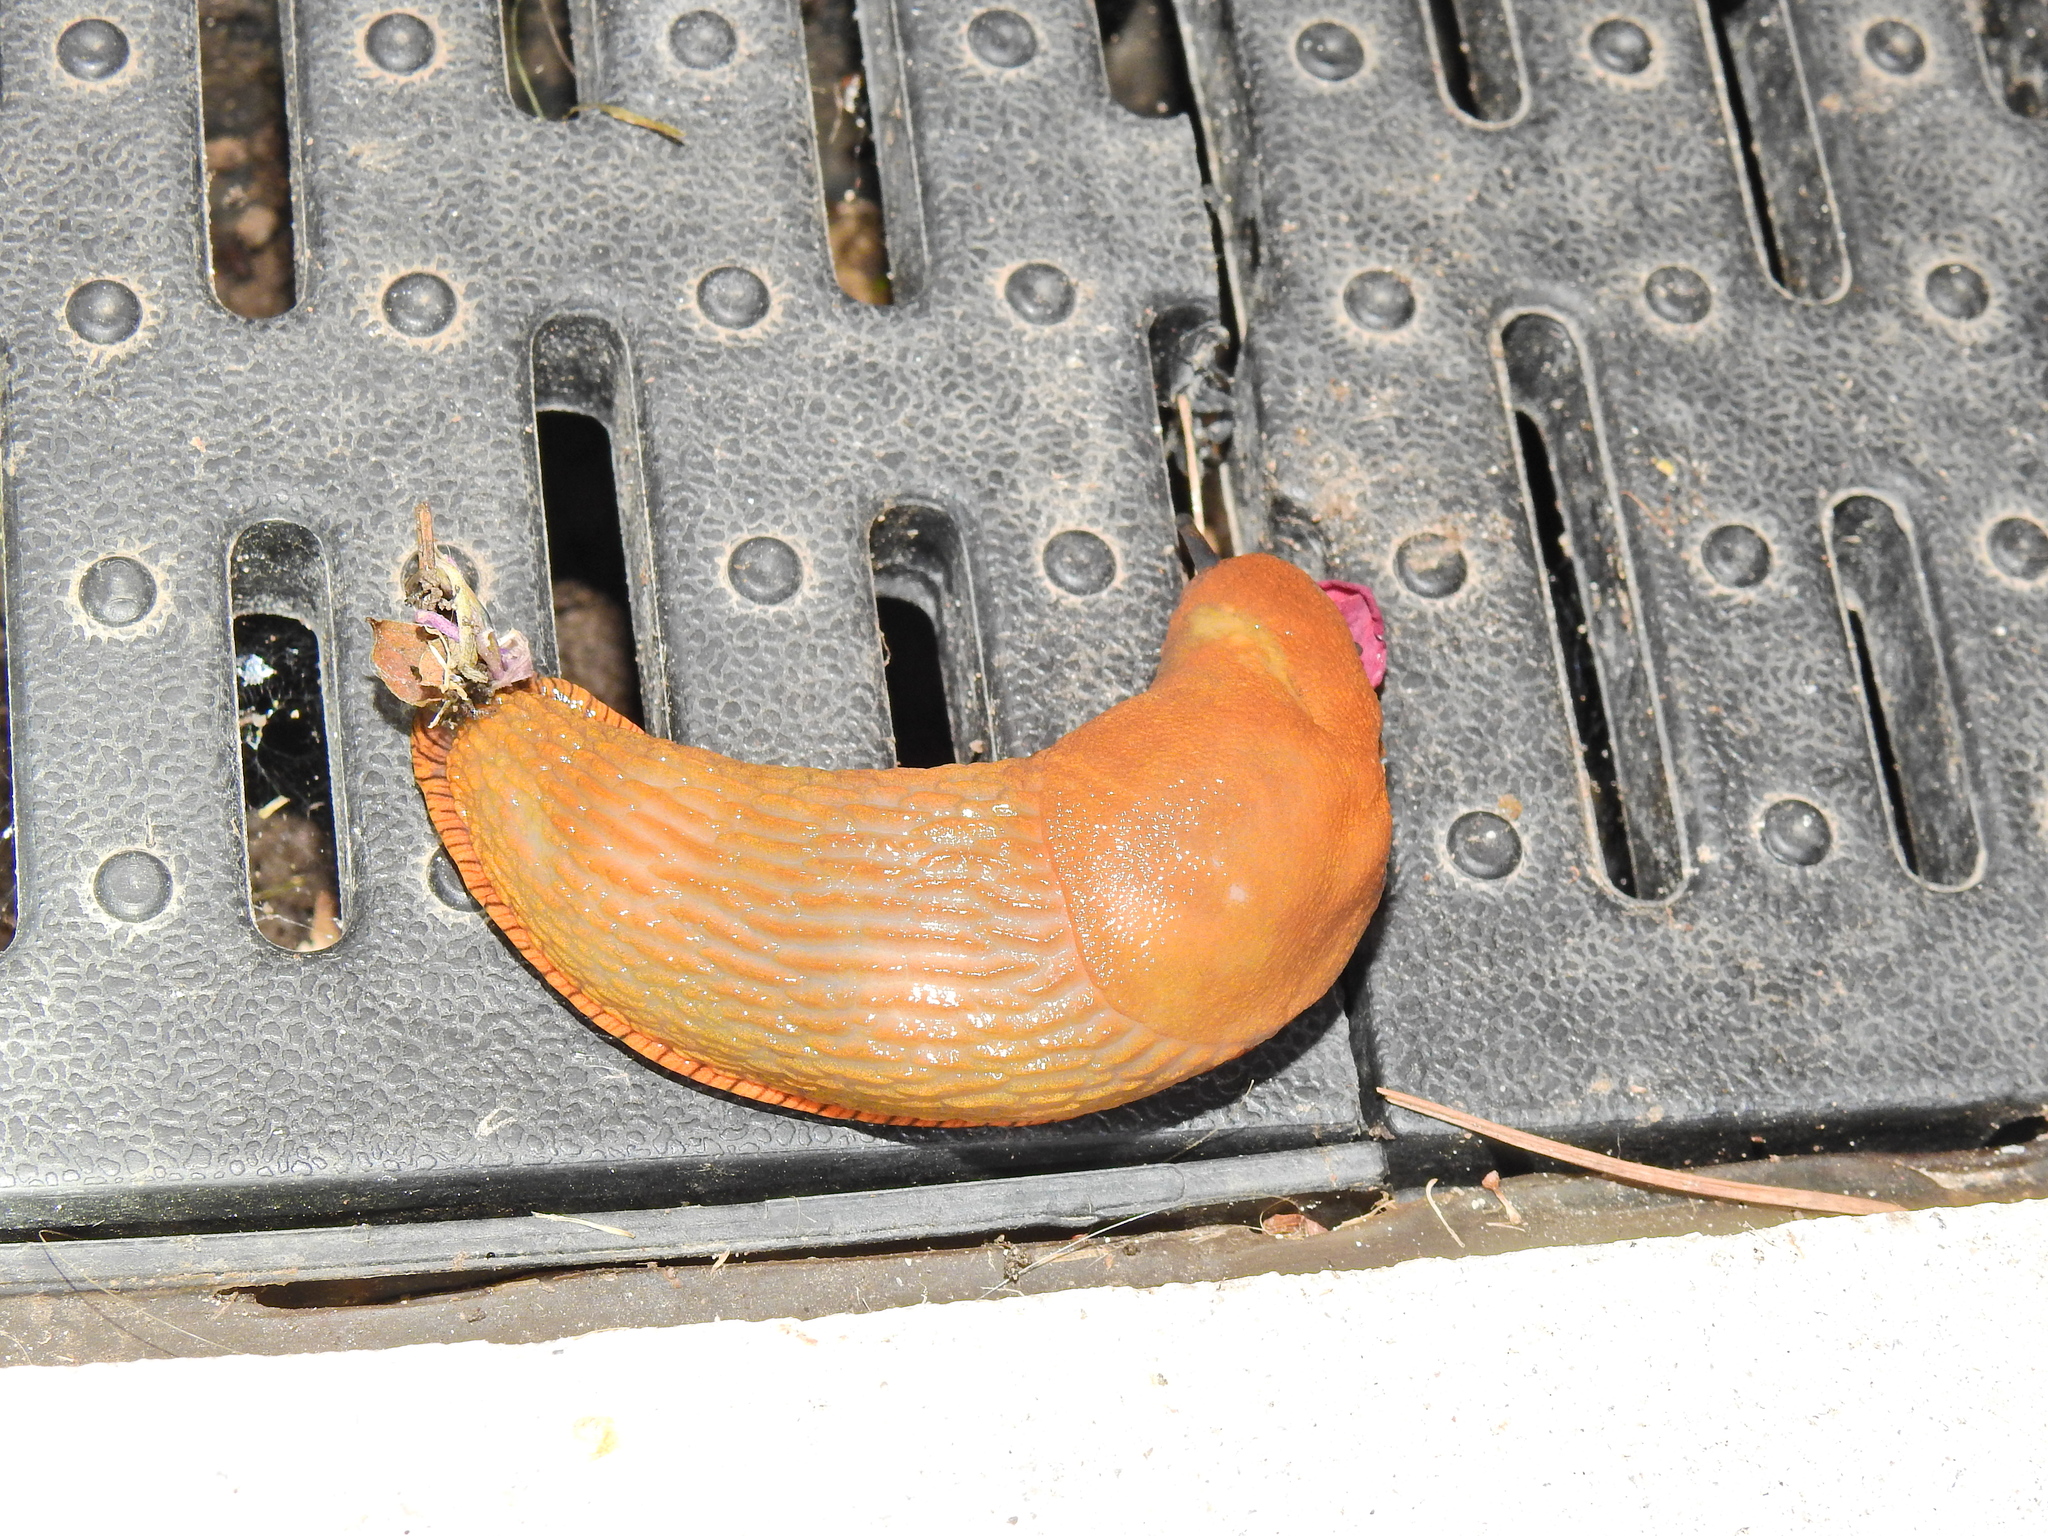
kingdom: Animalia
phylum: Mollusca
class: Gastropoda
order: Stylommatophora
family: Arionidae
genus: Arion
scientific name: Arion
